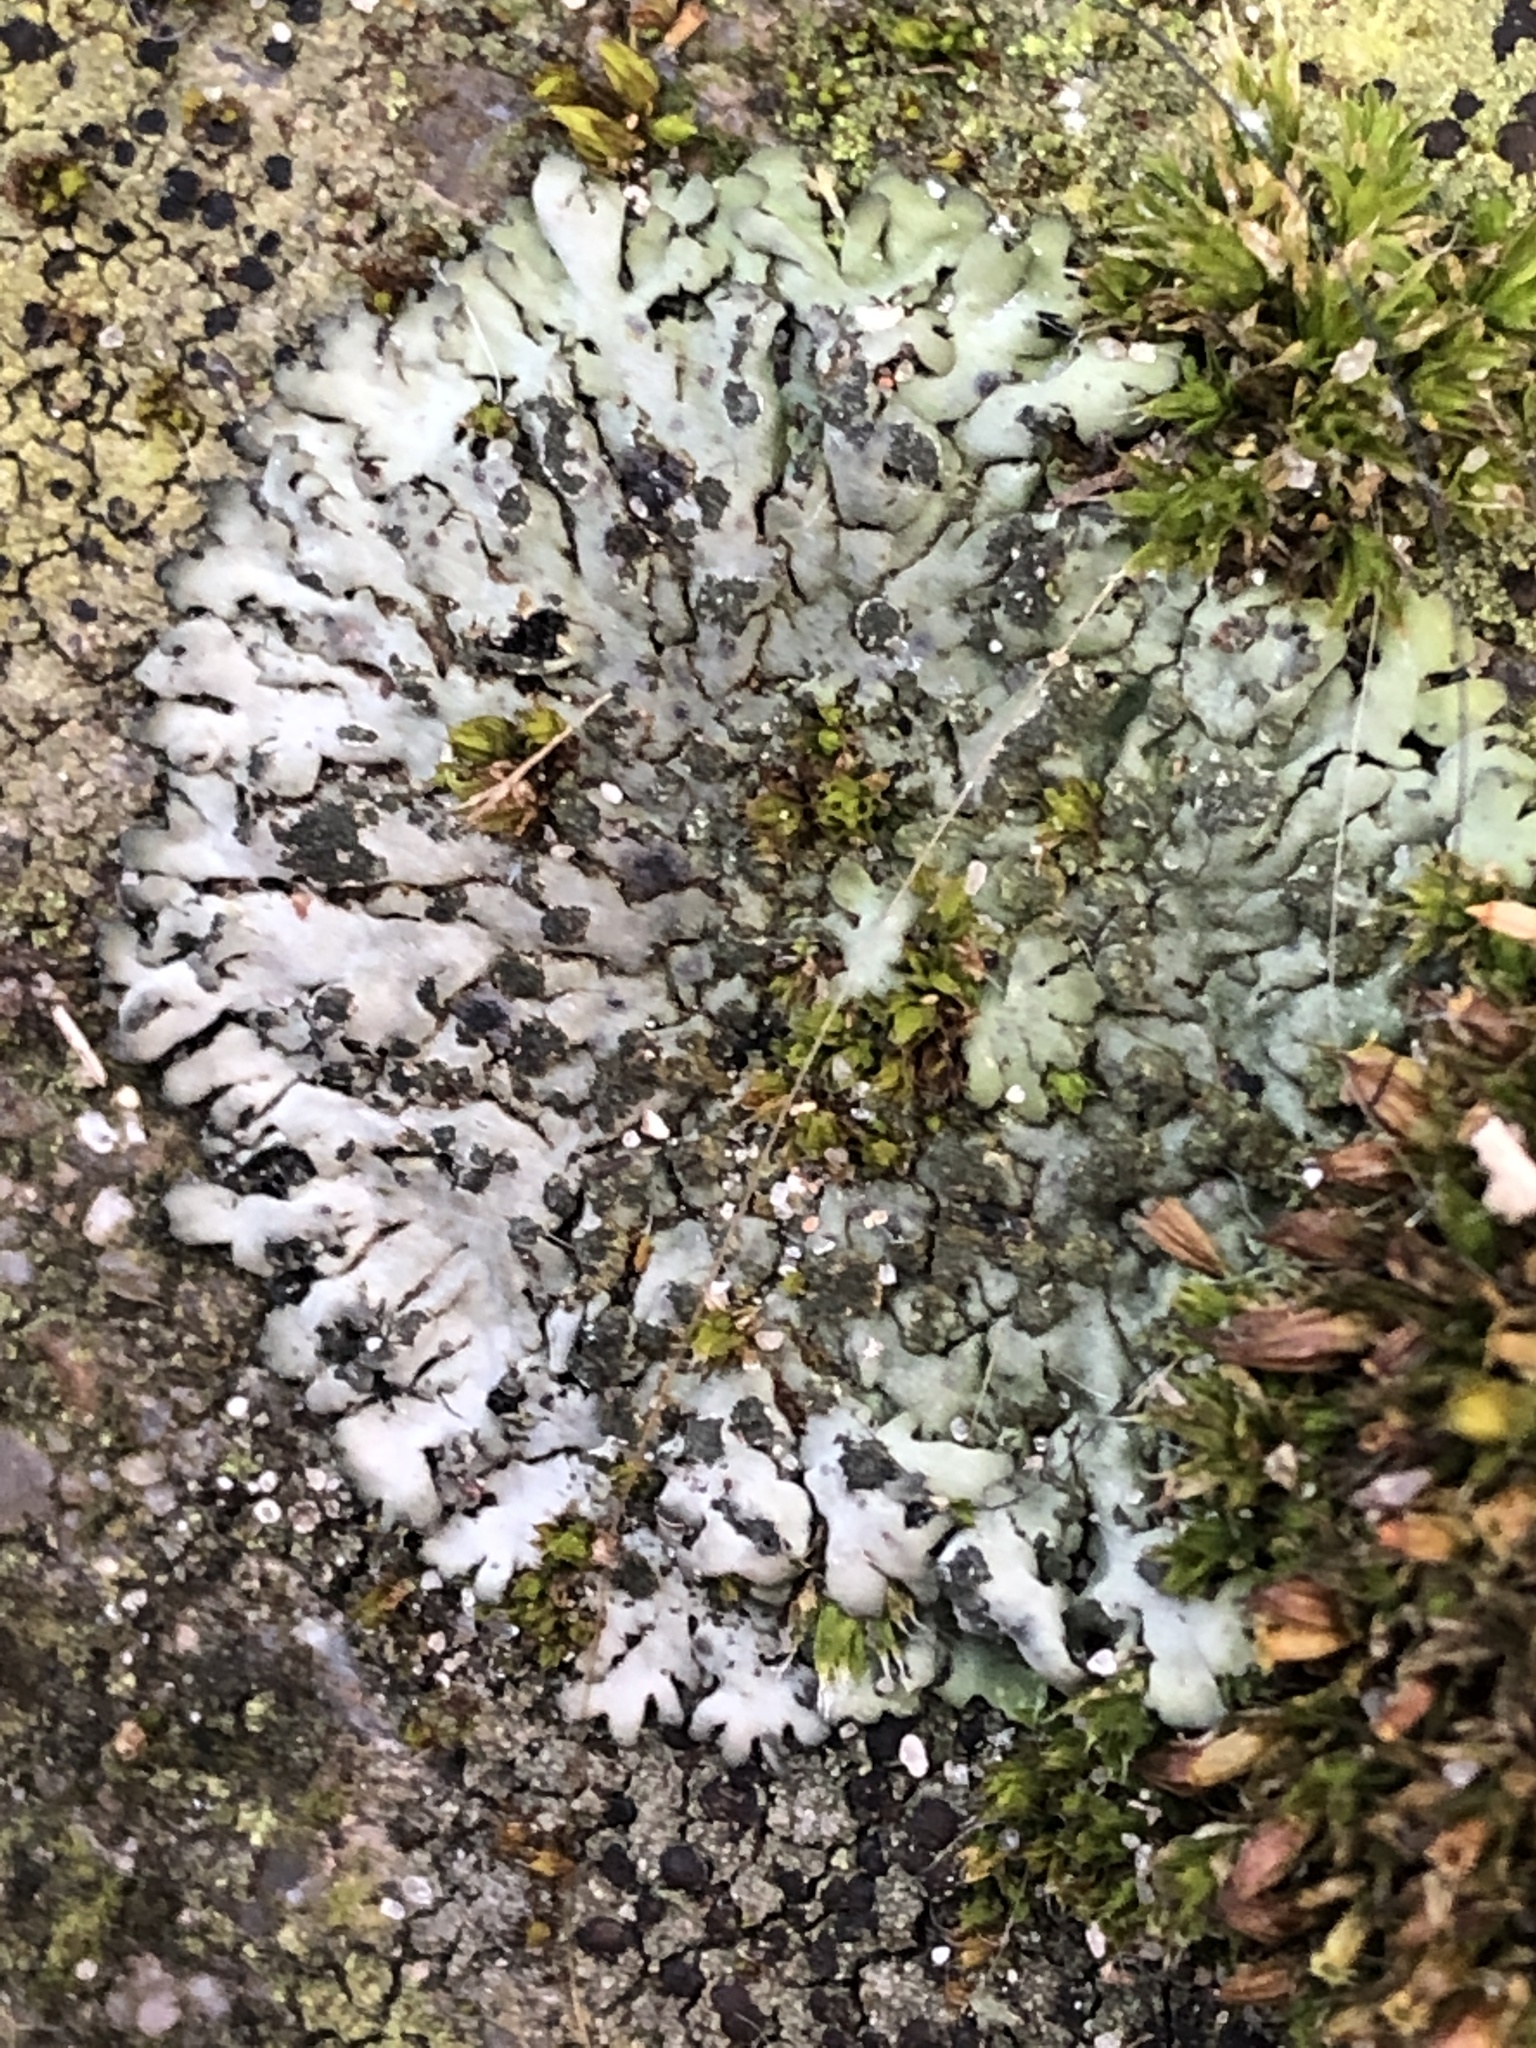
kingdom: Fungi
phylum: Ascomycota
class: Lecanoromycetes
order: Caliciales
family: Physciaceae
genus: Phaeophyscia
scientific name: Phaeophyscia orbicularis
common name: Mealy shadow lichen
